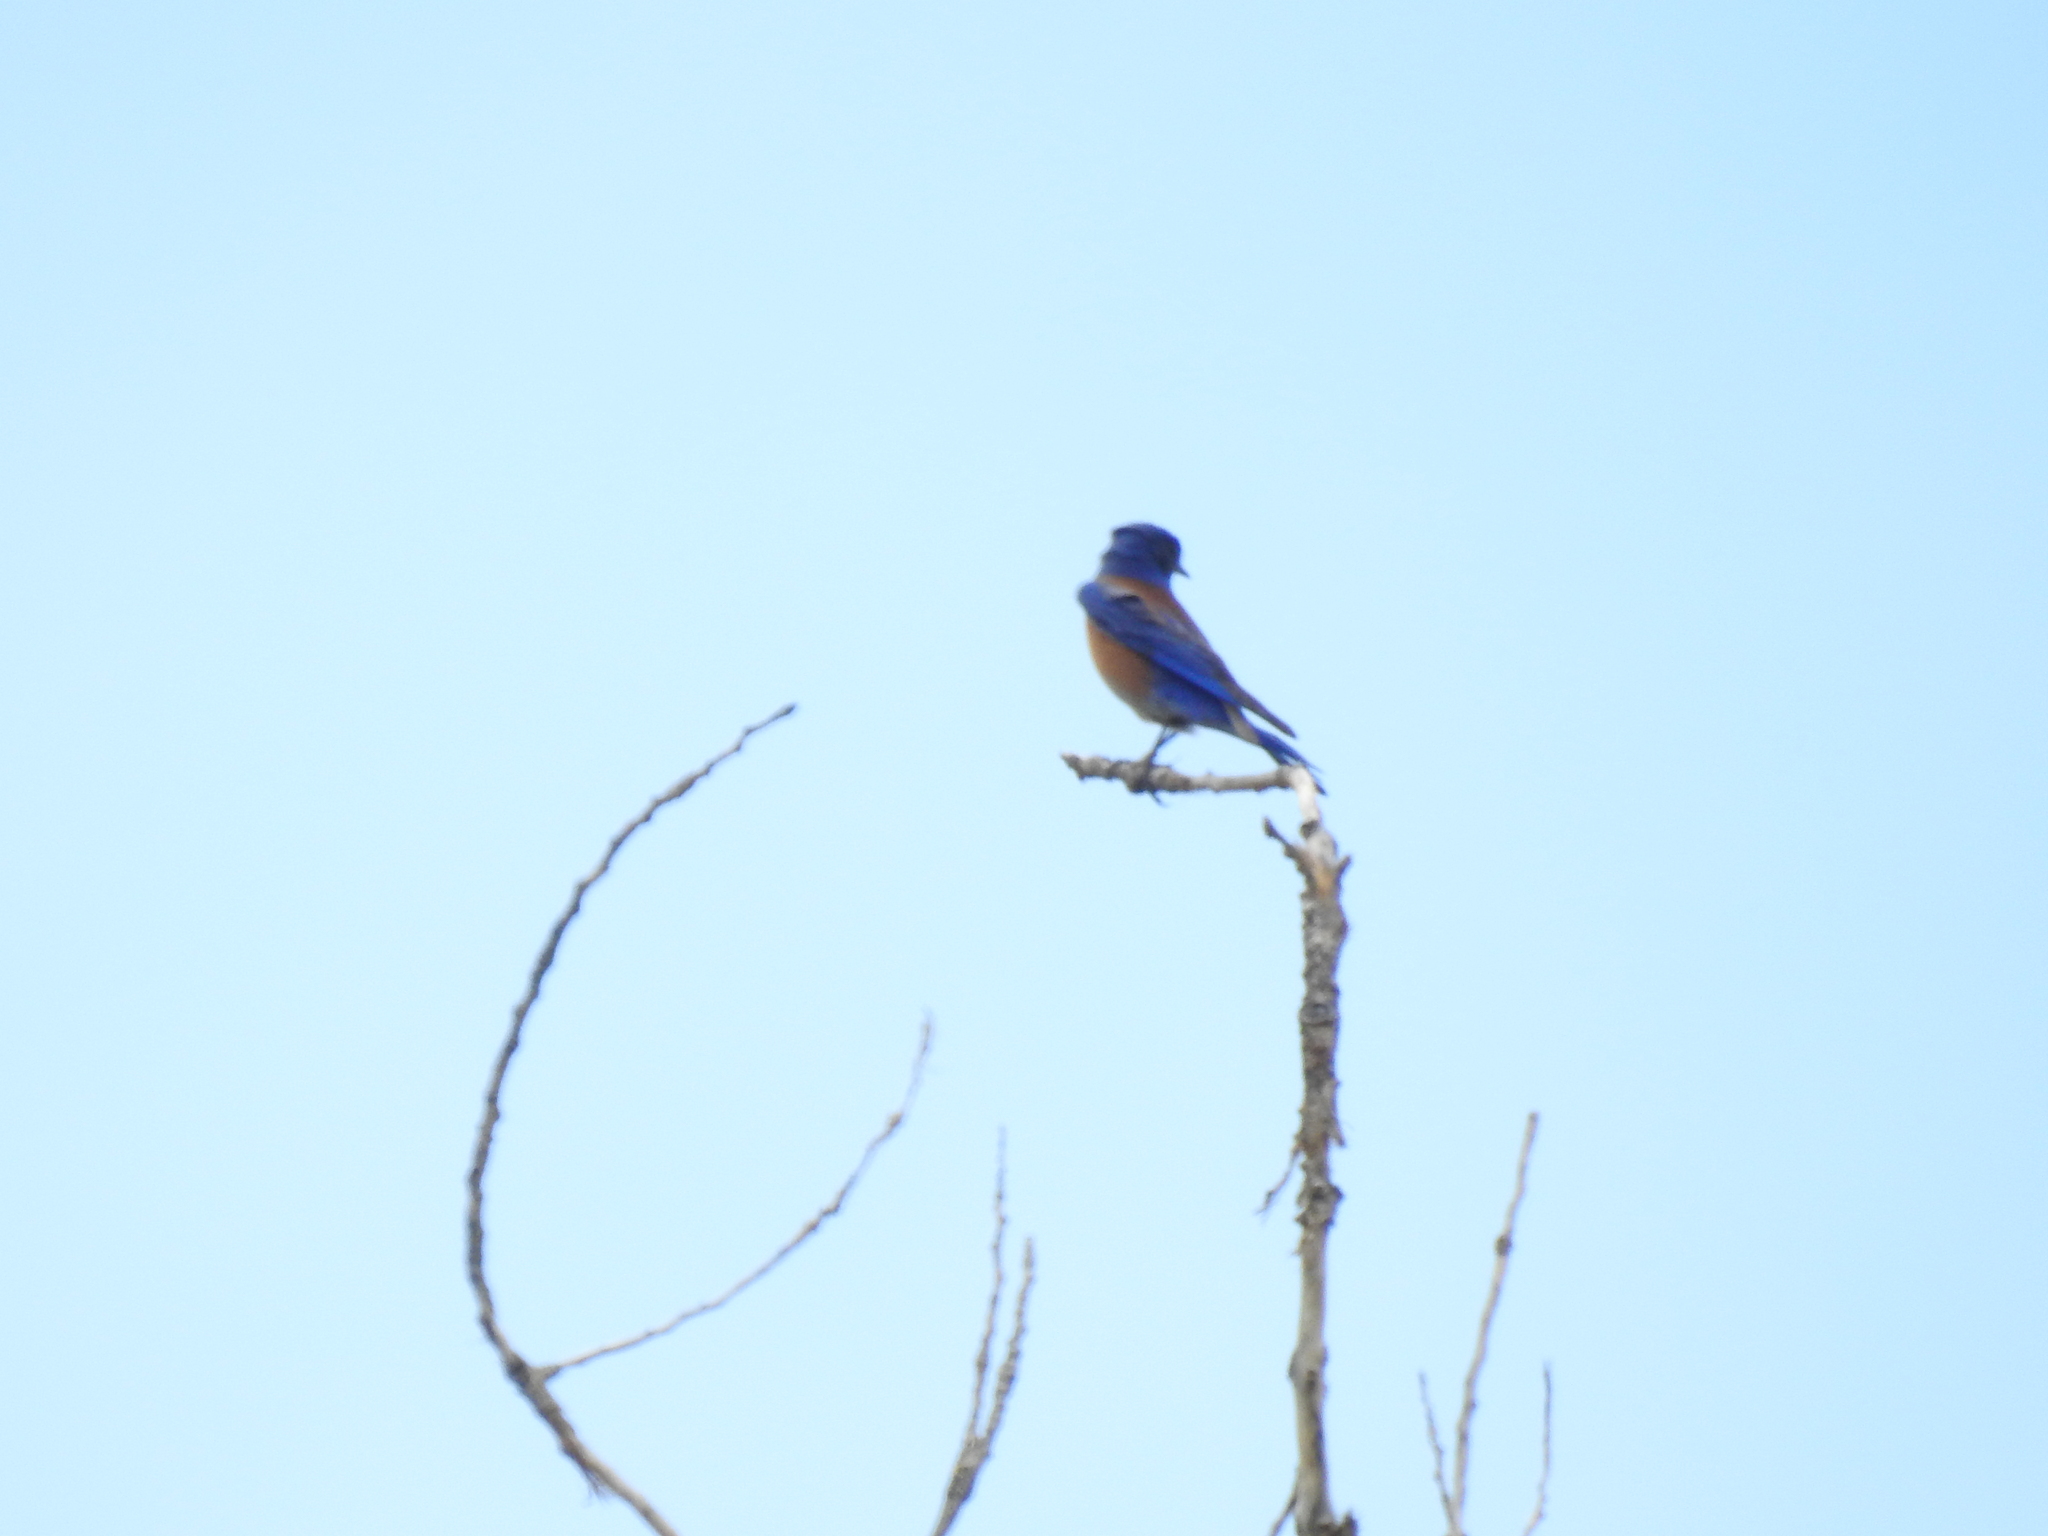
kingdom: Animalia
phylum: Chordata
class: Aves
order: Passeriformes
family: Turdidae
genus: Sialia
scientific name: Sialia mexicana
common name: Western bluebird
